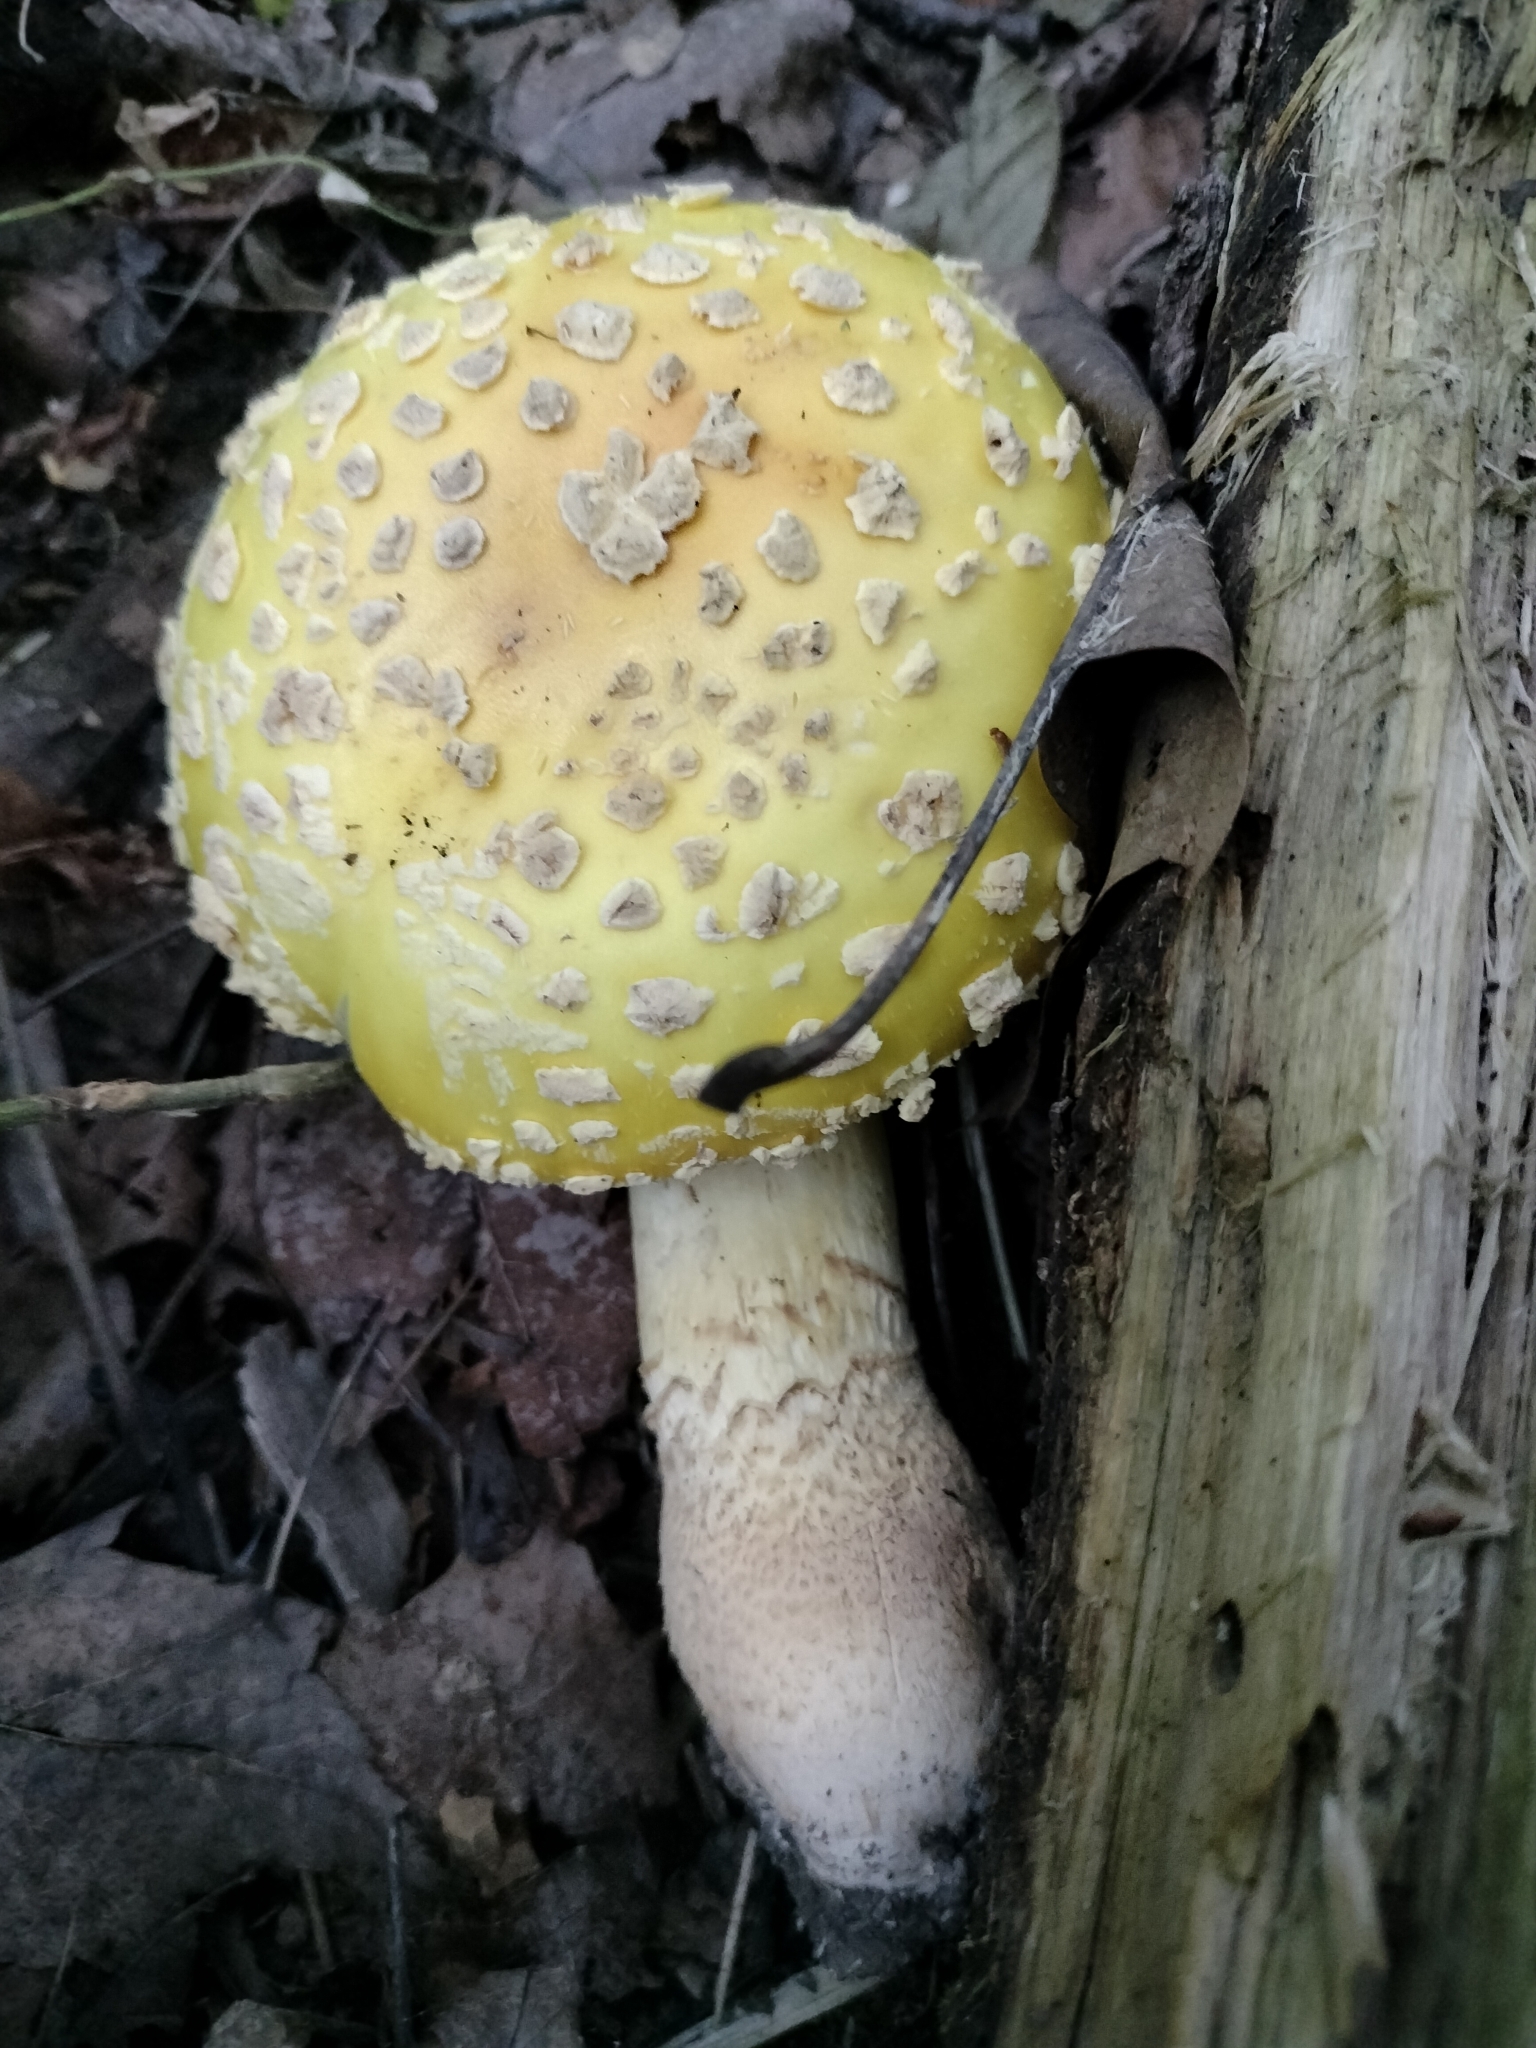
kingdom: Fungi
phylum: Basidiomycota
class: Agaricomycetes
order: Agaricales
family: Amanitaceae
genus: Amanita
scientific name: Amanita muscaria
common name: Fly agaric
